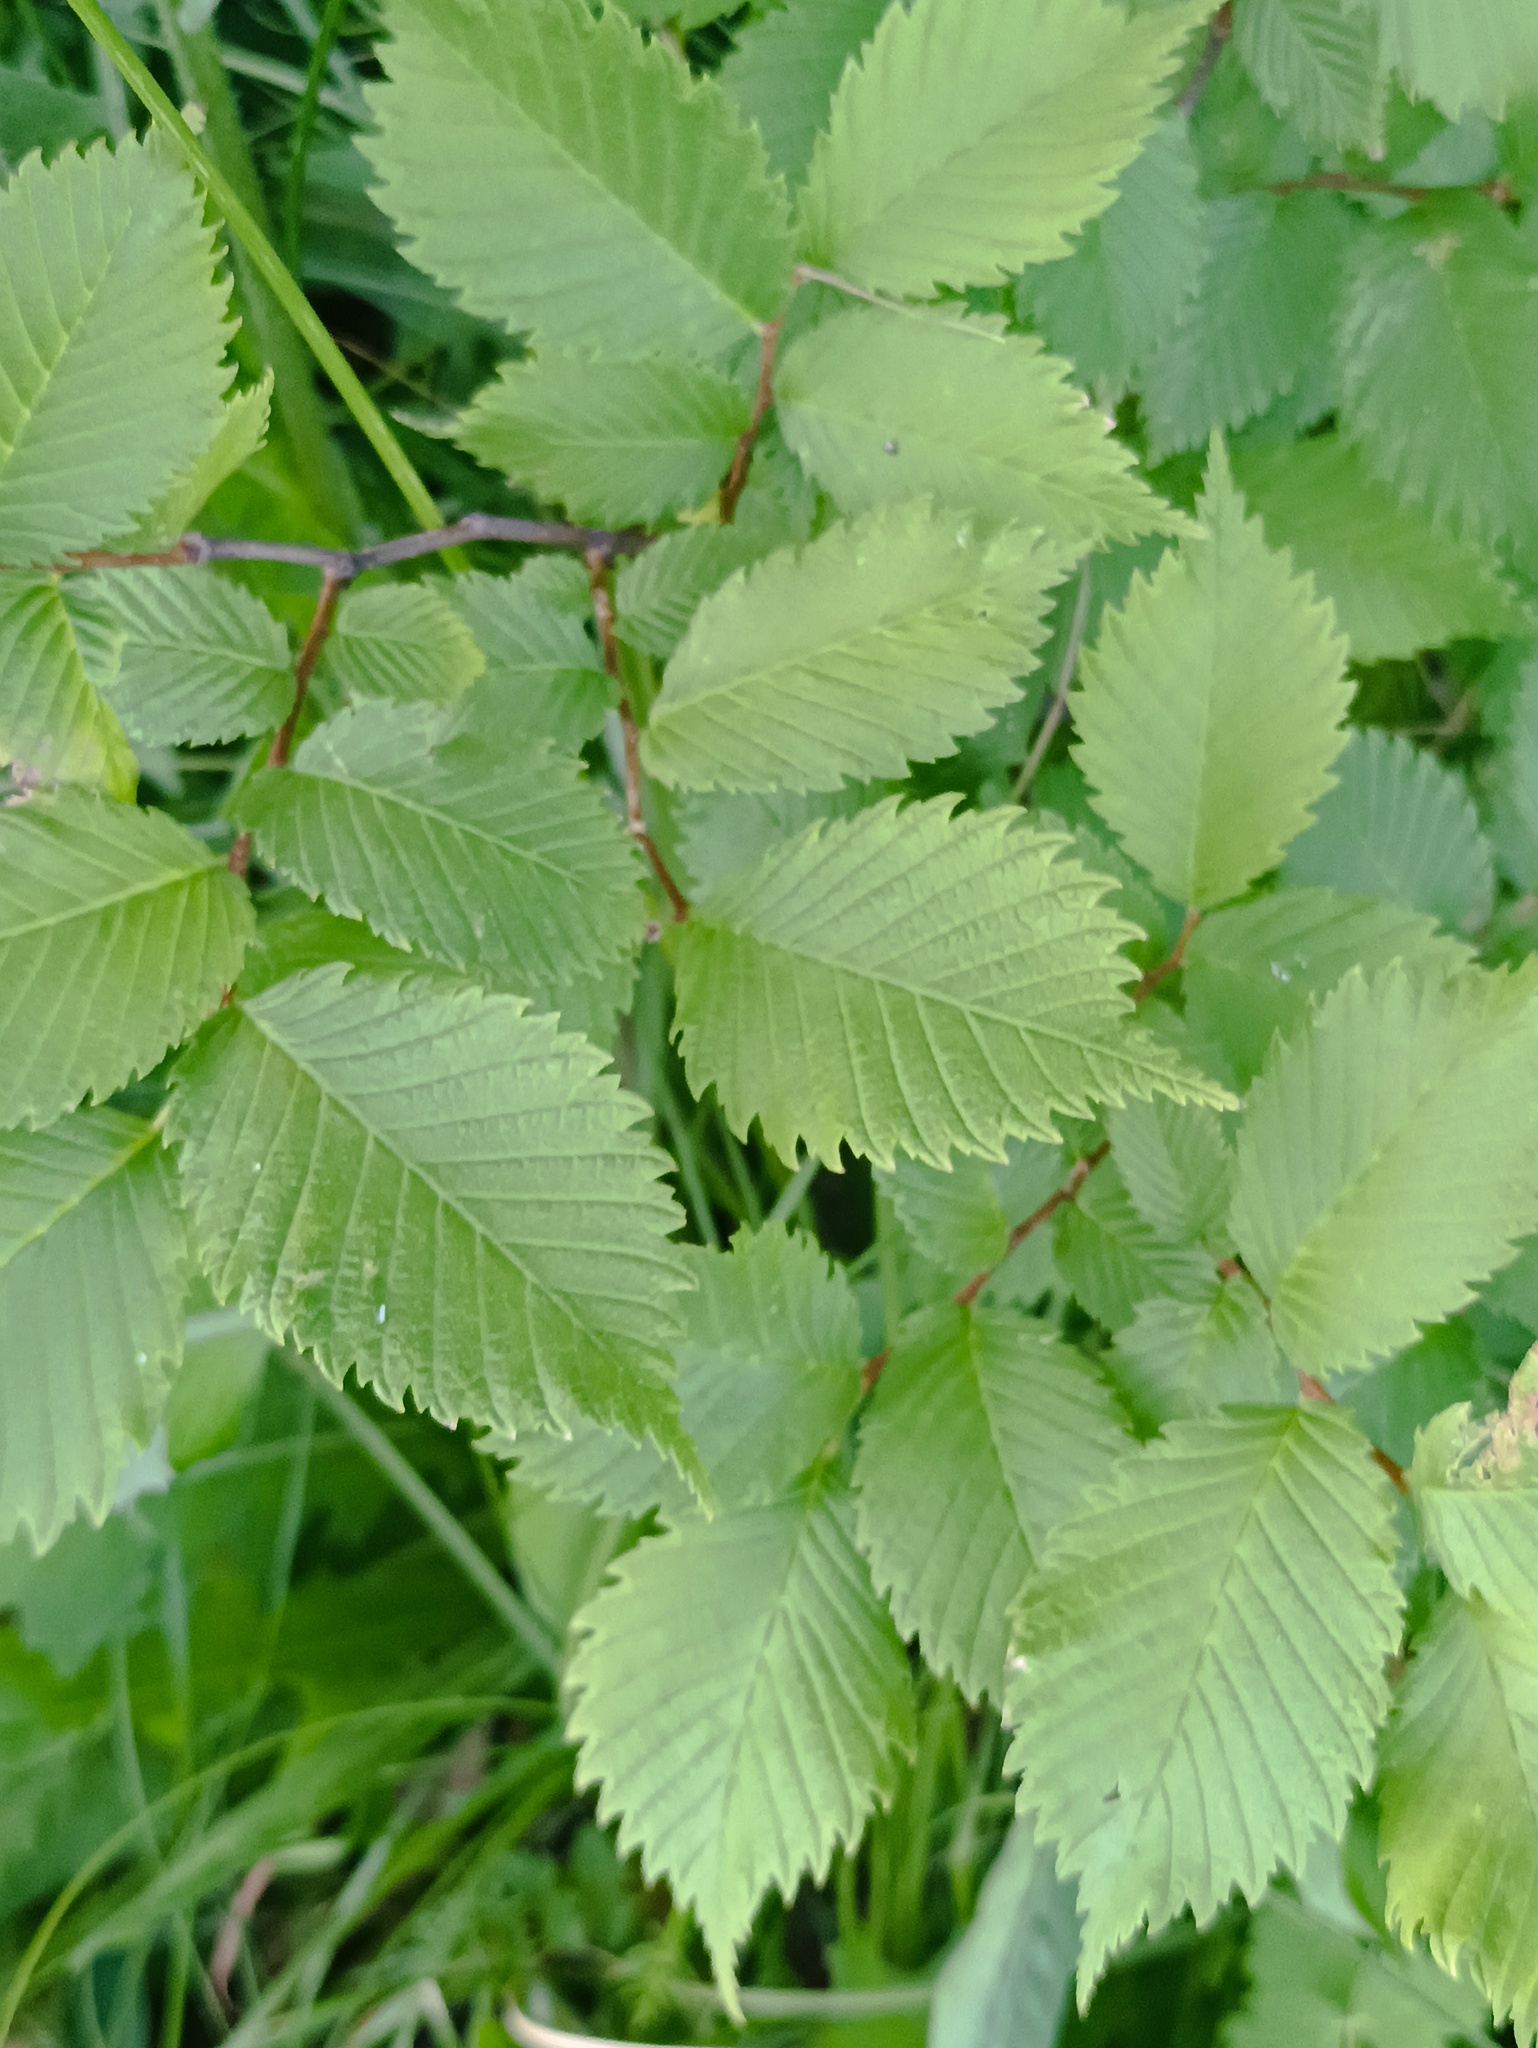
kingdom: Plantae
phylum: Tracheophyta
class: Magnoliopsida
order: Rosales
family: Ulmaceae
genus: Ulmus
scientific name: Ulmus laevis
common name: European white-elm
